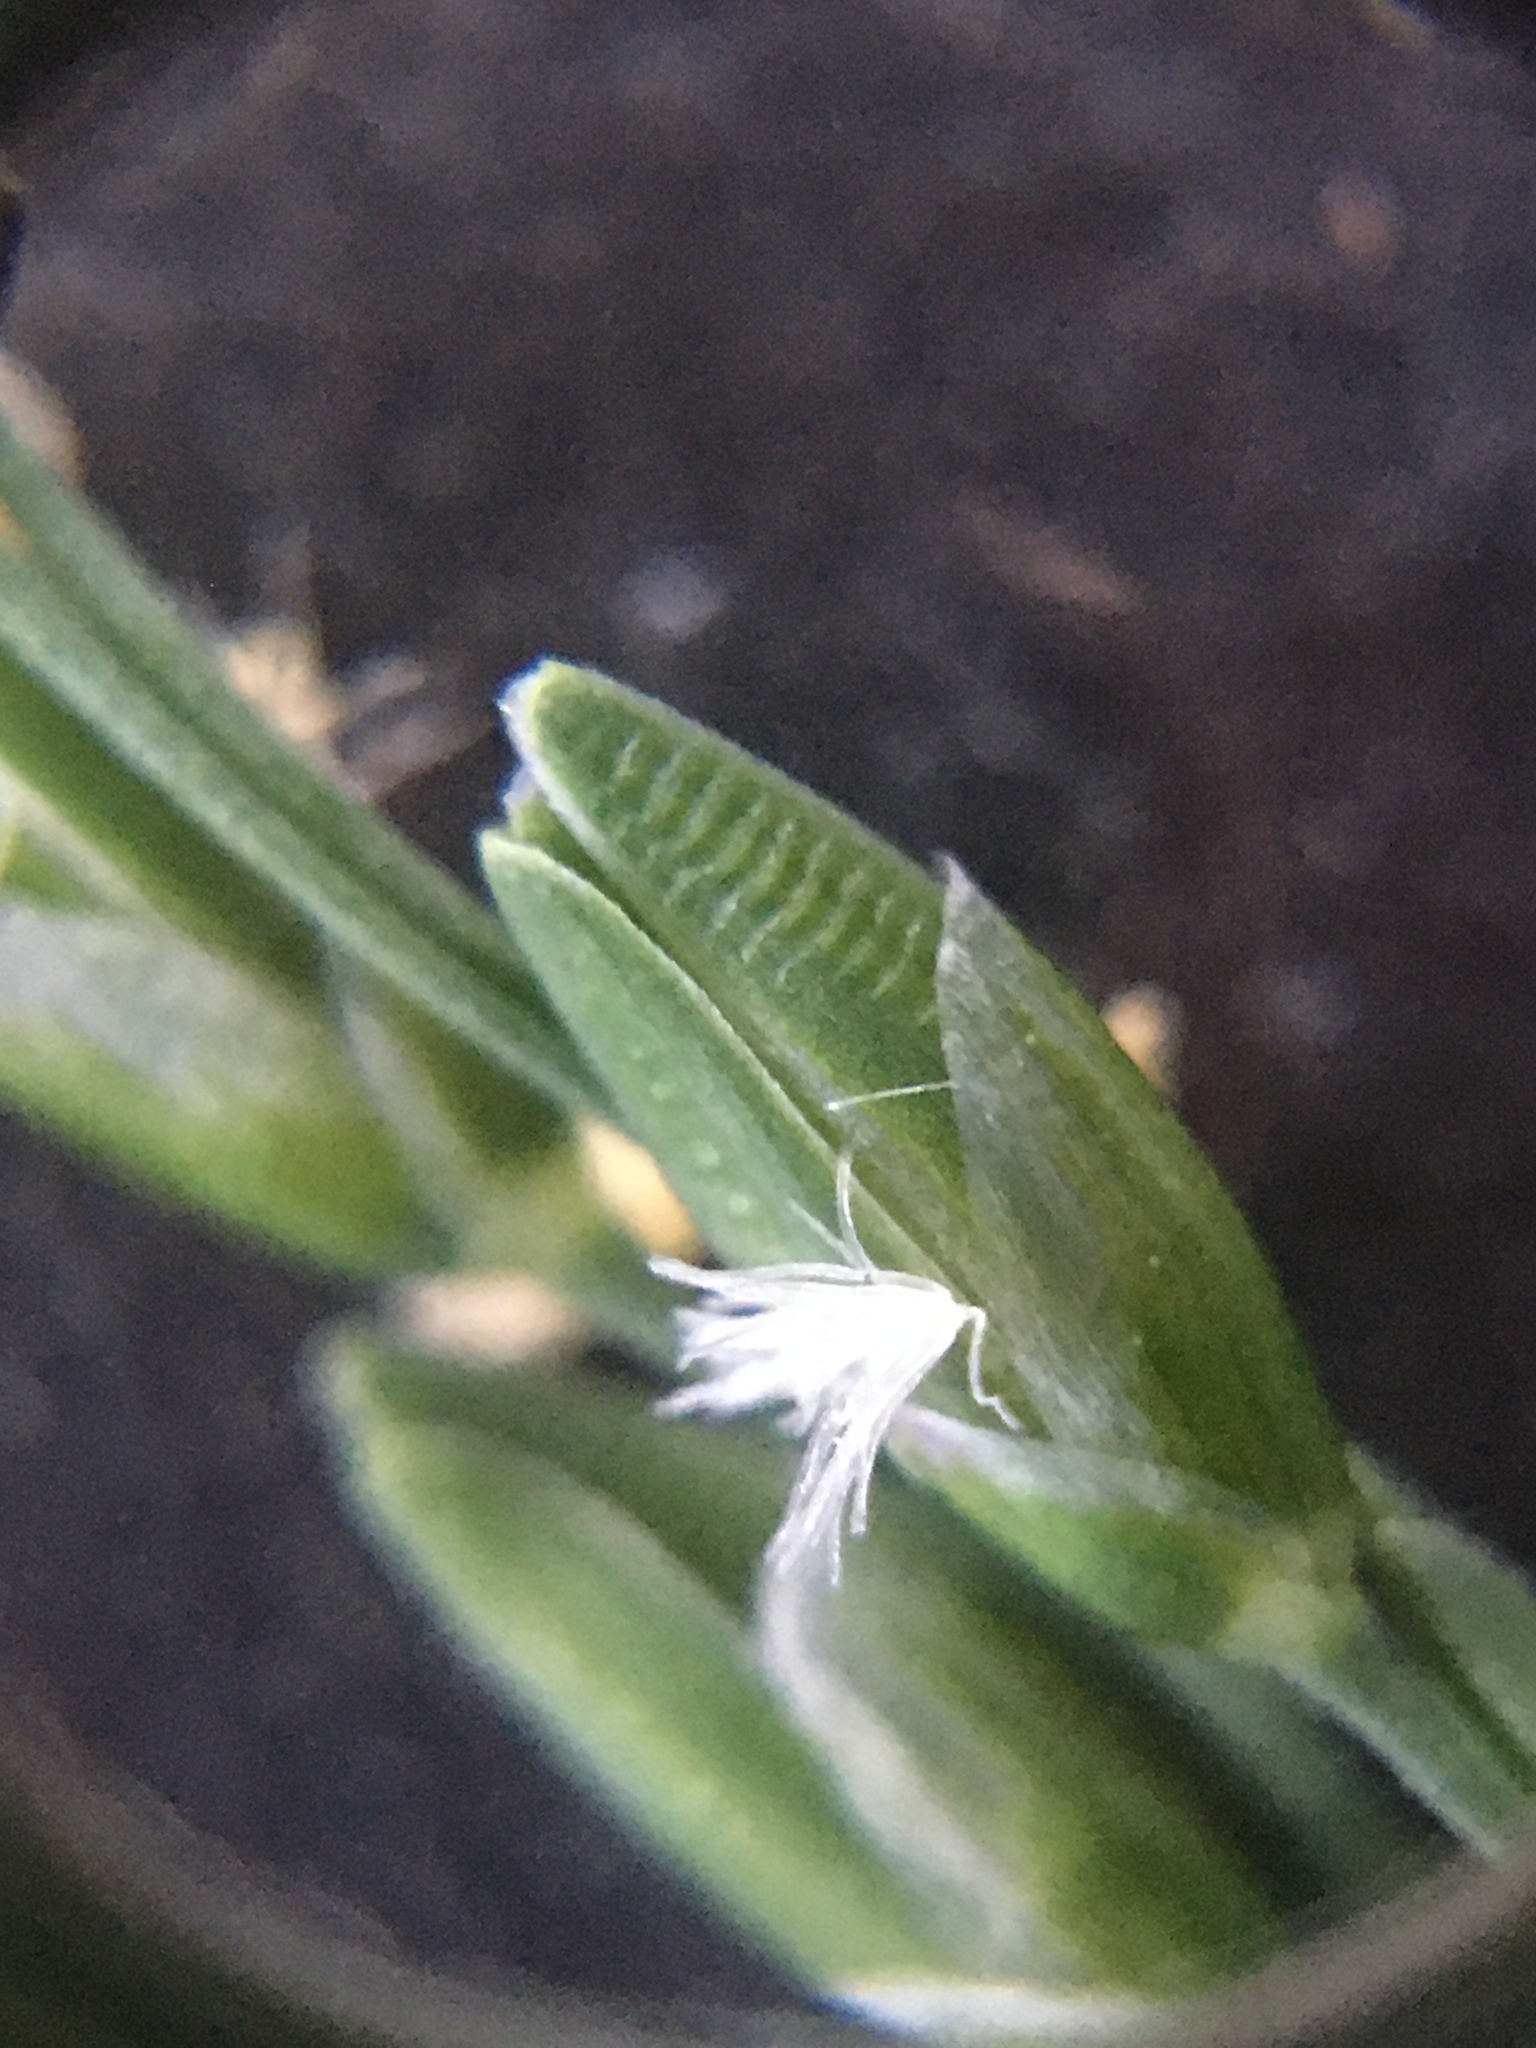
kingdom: Plantae
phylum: Tracheophyta
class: Liliopsida
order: Poales
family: Poaceae
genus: Ehrharta
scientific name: Ehrharta erecta
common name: Panic veldtgrass
